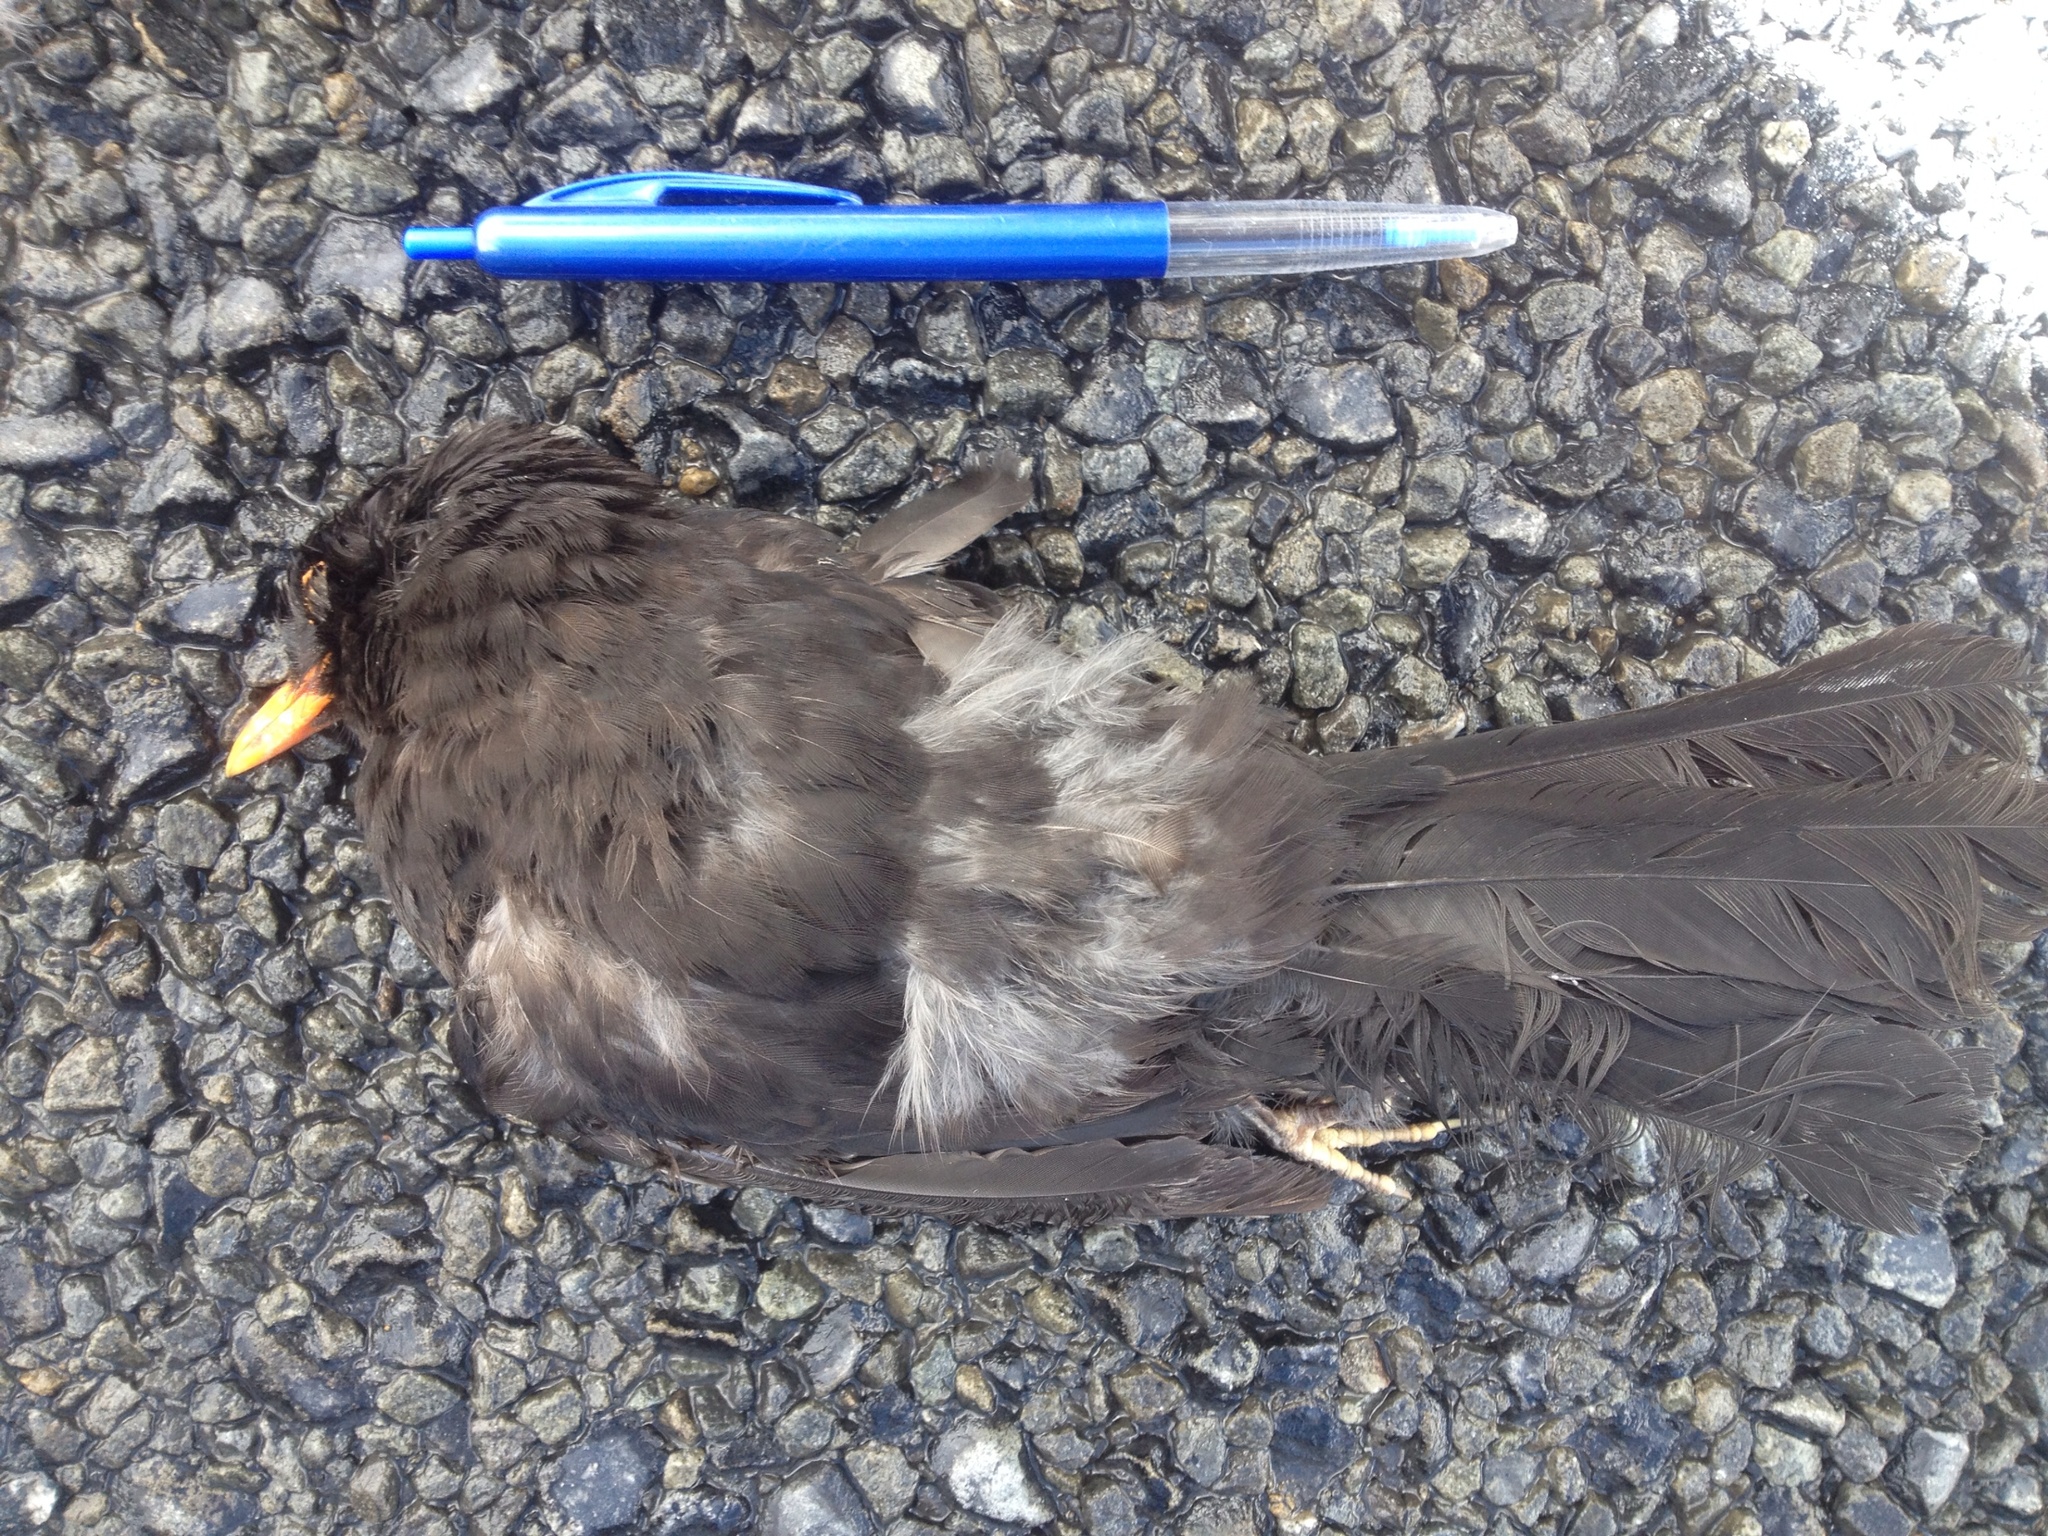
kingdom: Animalia
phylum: Chordata
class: Aves
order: Passeriformes
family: Turdidae
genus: Turdus
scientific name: Turdus merula
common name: Common blackbird
